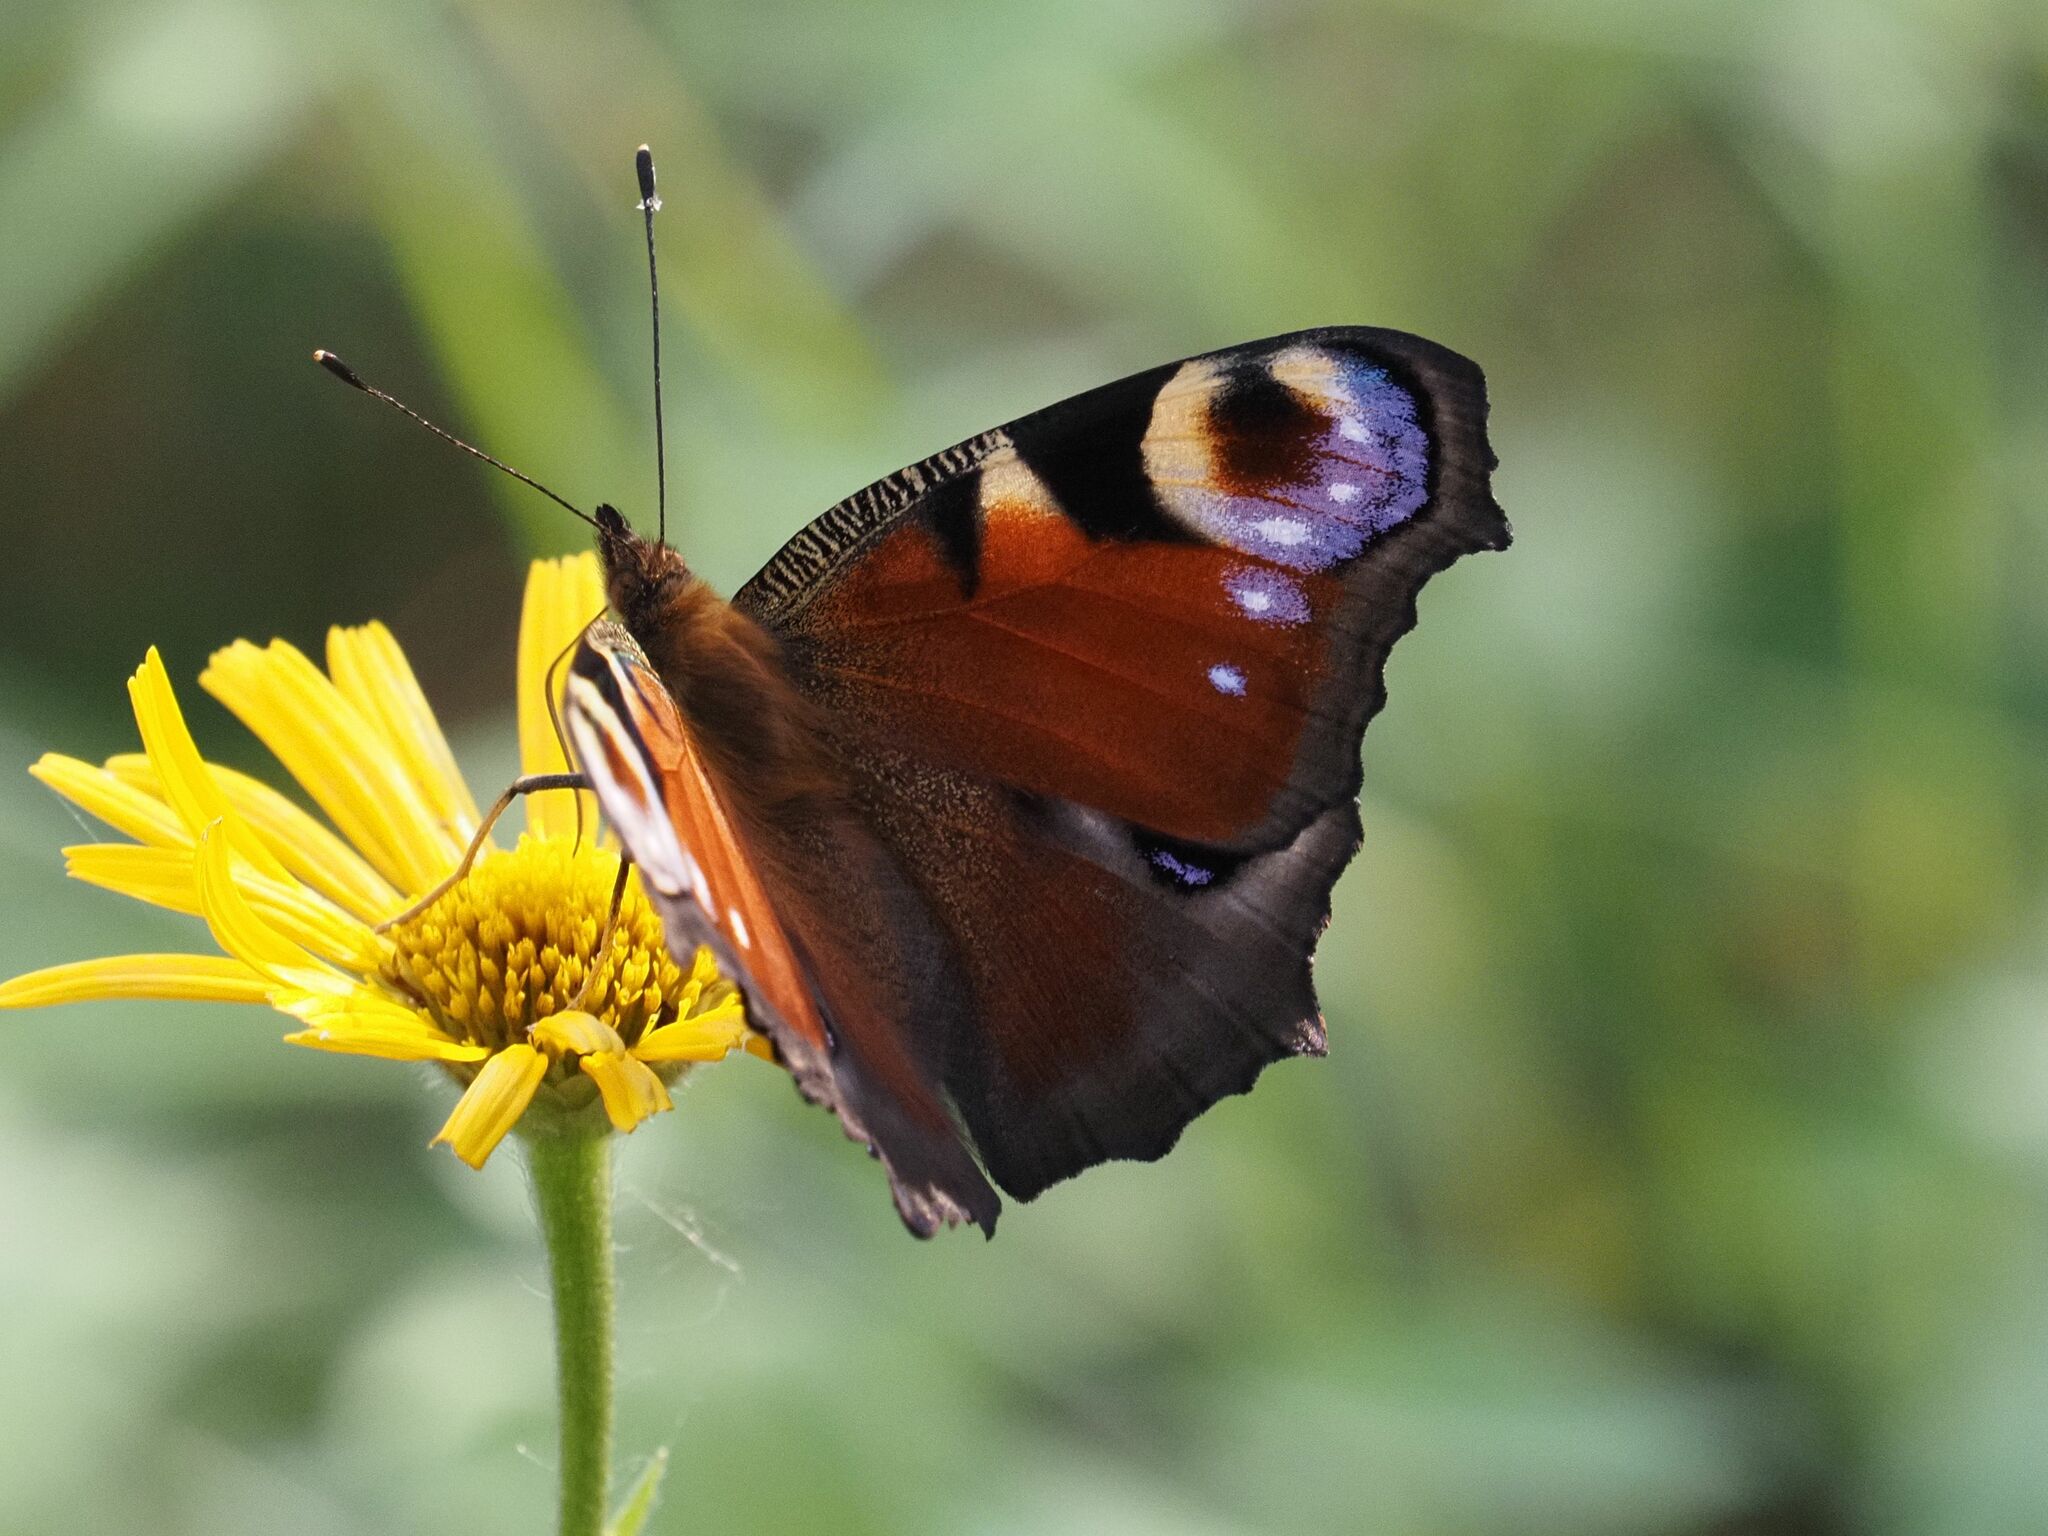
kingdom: Animalia
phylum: Arthropoda
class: Insecta
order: Lepidoptera
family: Nymphalidae
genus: Aglais
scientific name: Aglais io
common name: Peacock
